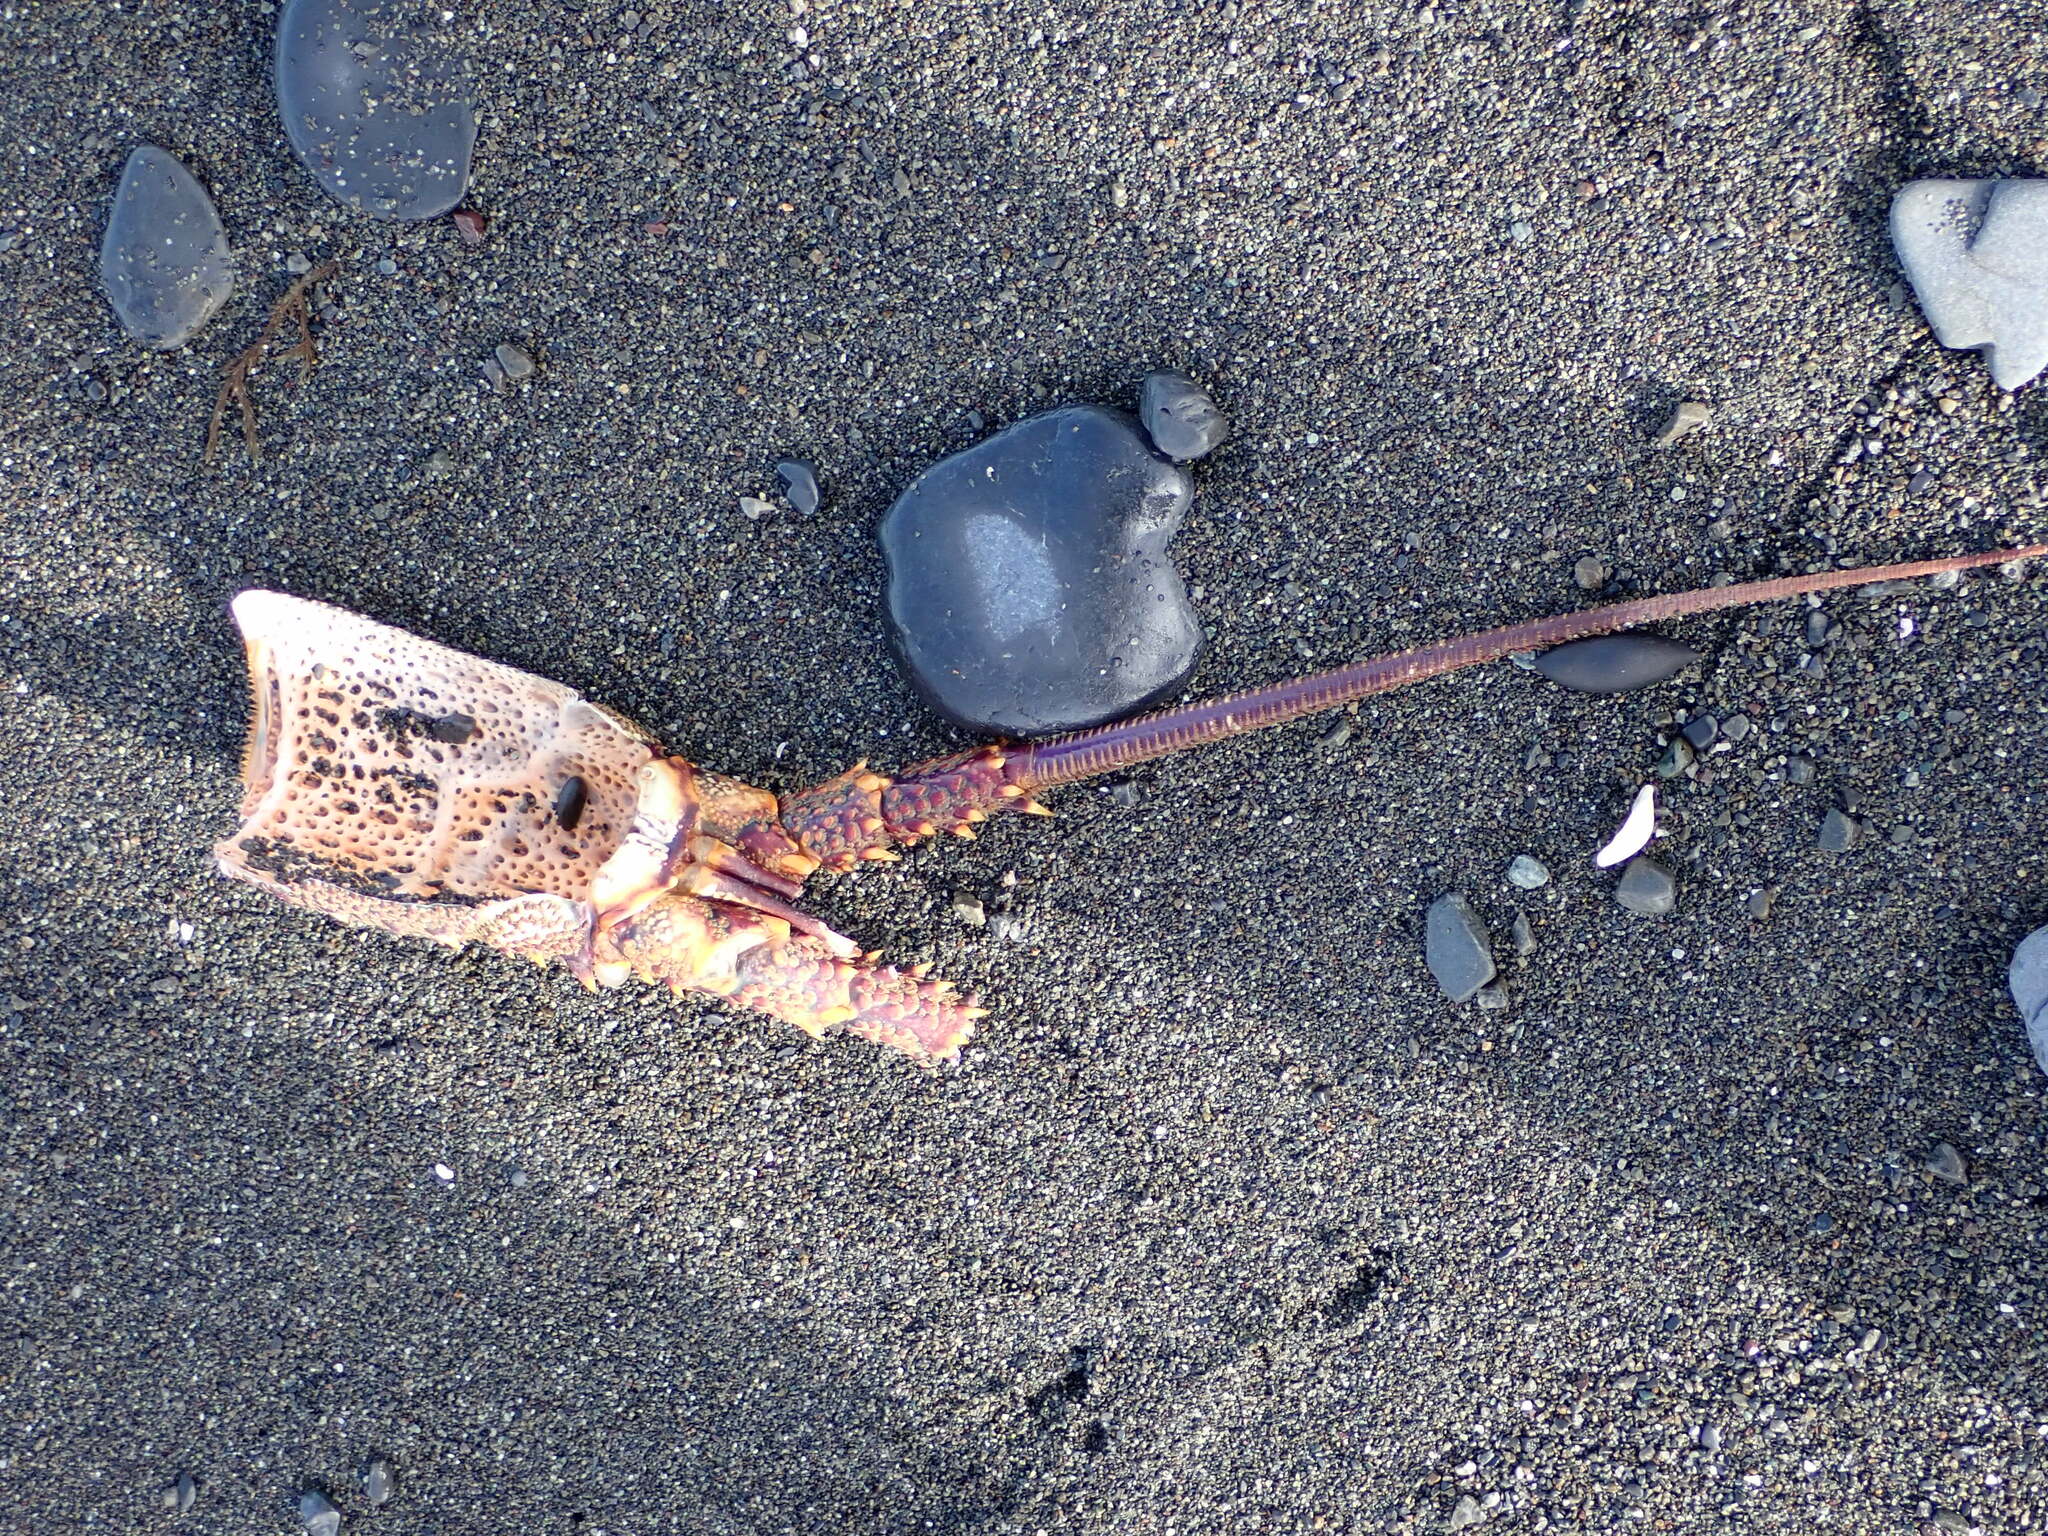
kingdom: Animalia
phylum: Arthropoda
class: Malacostraca
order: Decapoda
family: Palinuridae
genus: Jasus
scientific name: Jasus edwardsii
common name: Red rock lobster
